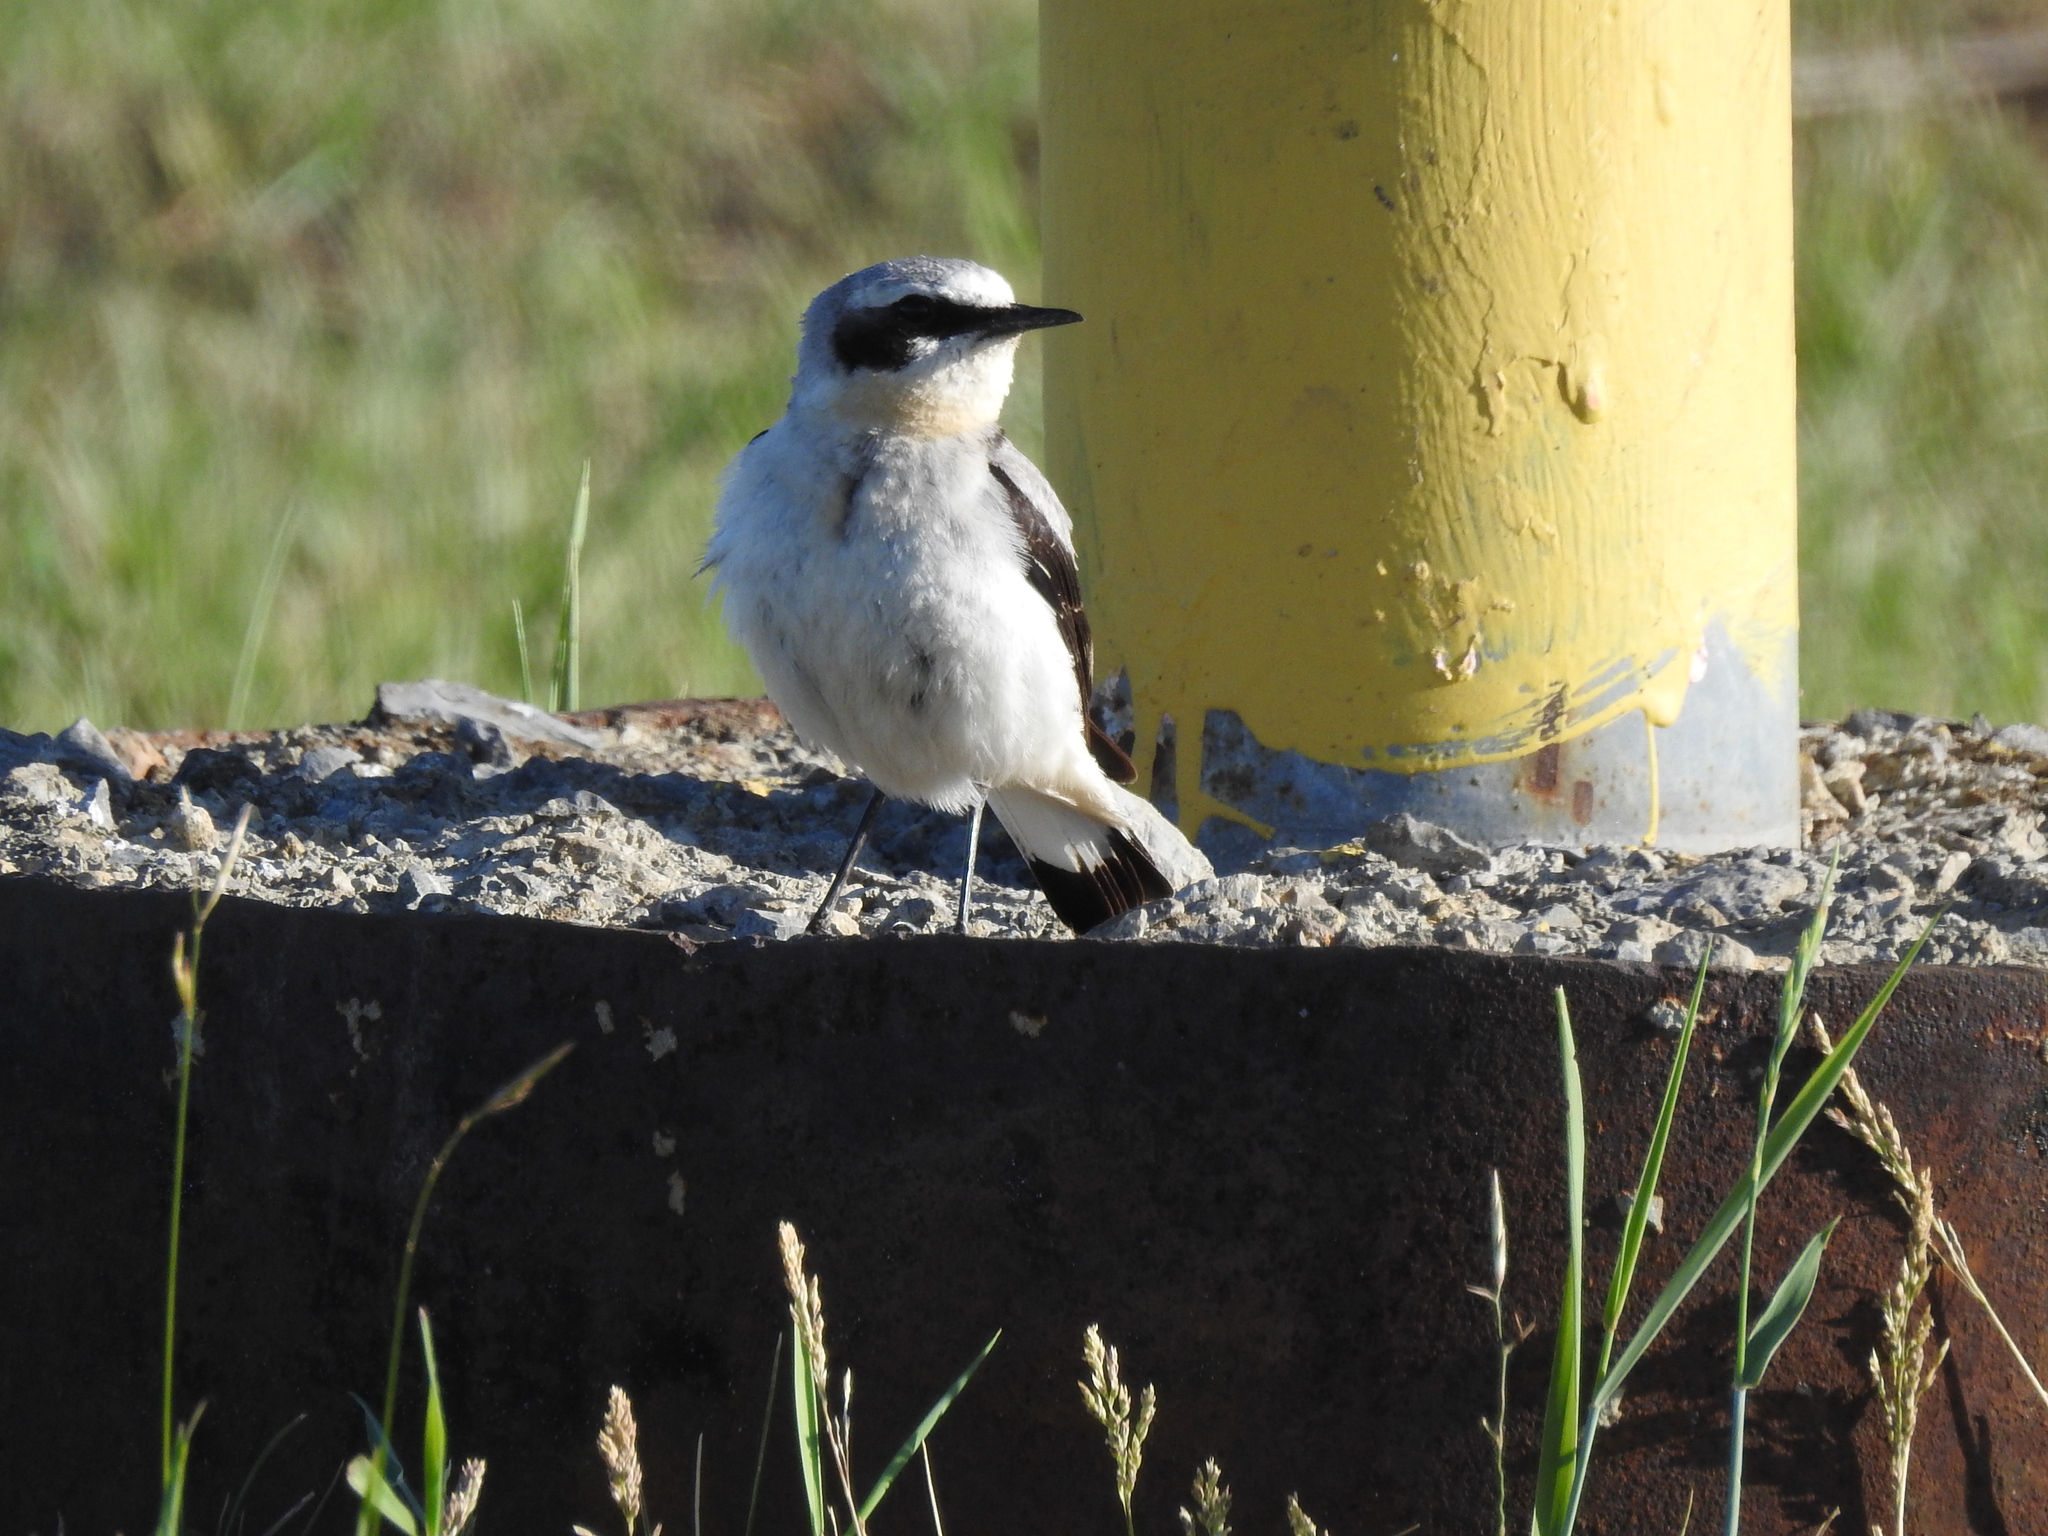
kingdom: Animalia
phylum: Chordata
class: Aves
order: Passeriformes
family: Muscicapidae
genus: Oenanthe
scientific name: Oenanthe oenanthe
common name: Northern wheatear
